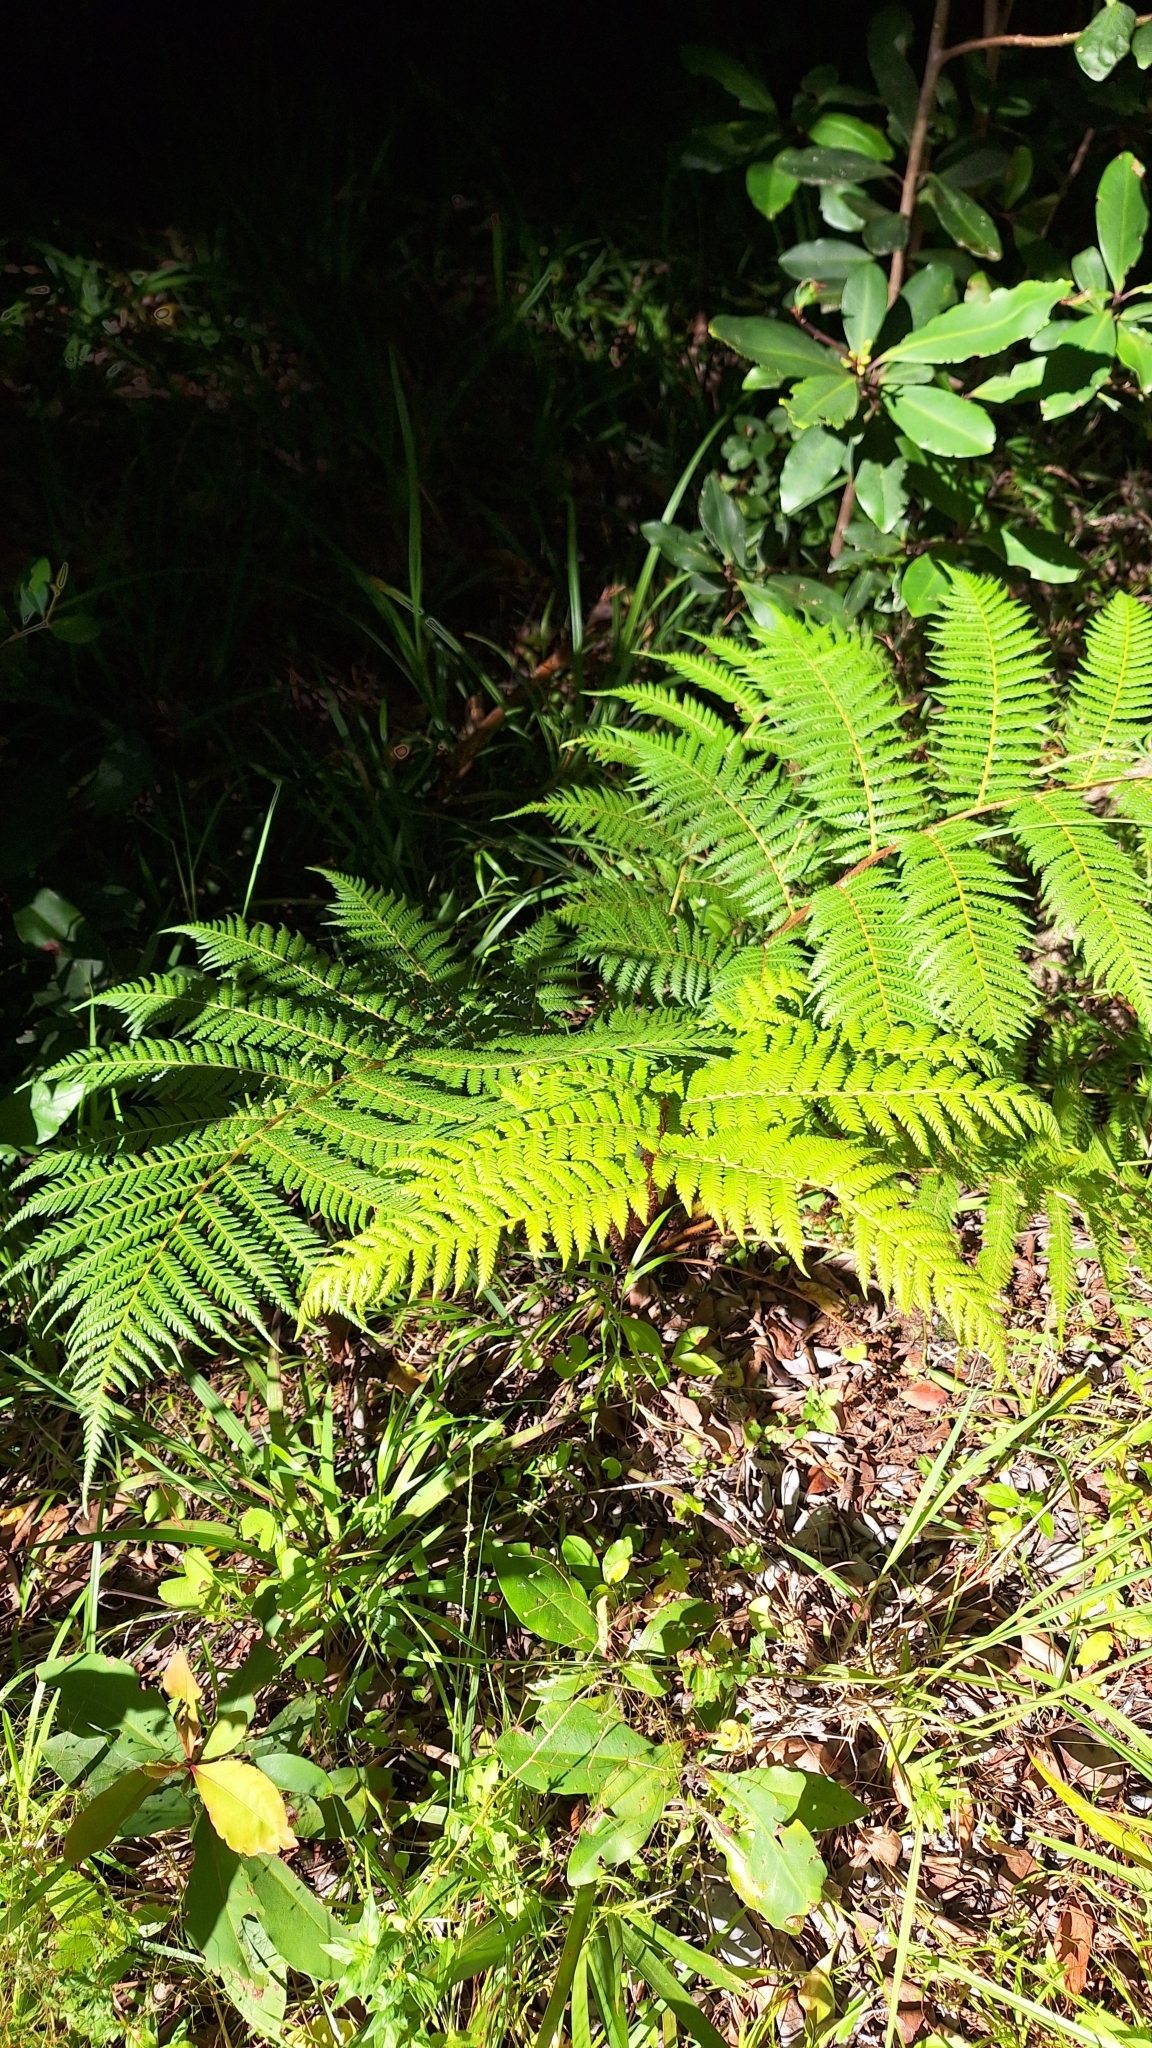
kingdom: Plantae
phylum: Tracheophyta
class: Polypodiopsida
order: Cyatheales
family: Cyatheaceae
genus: Sphaeropteris
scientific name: Sphaeropteris cooperi
